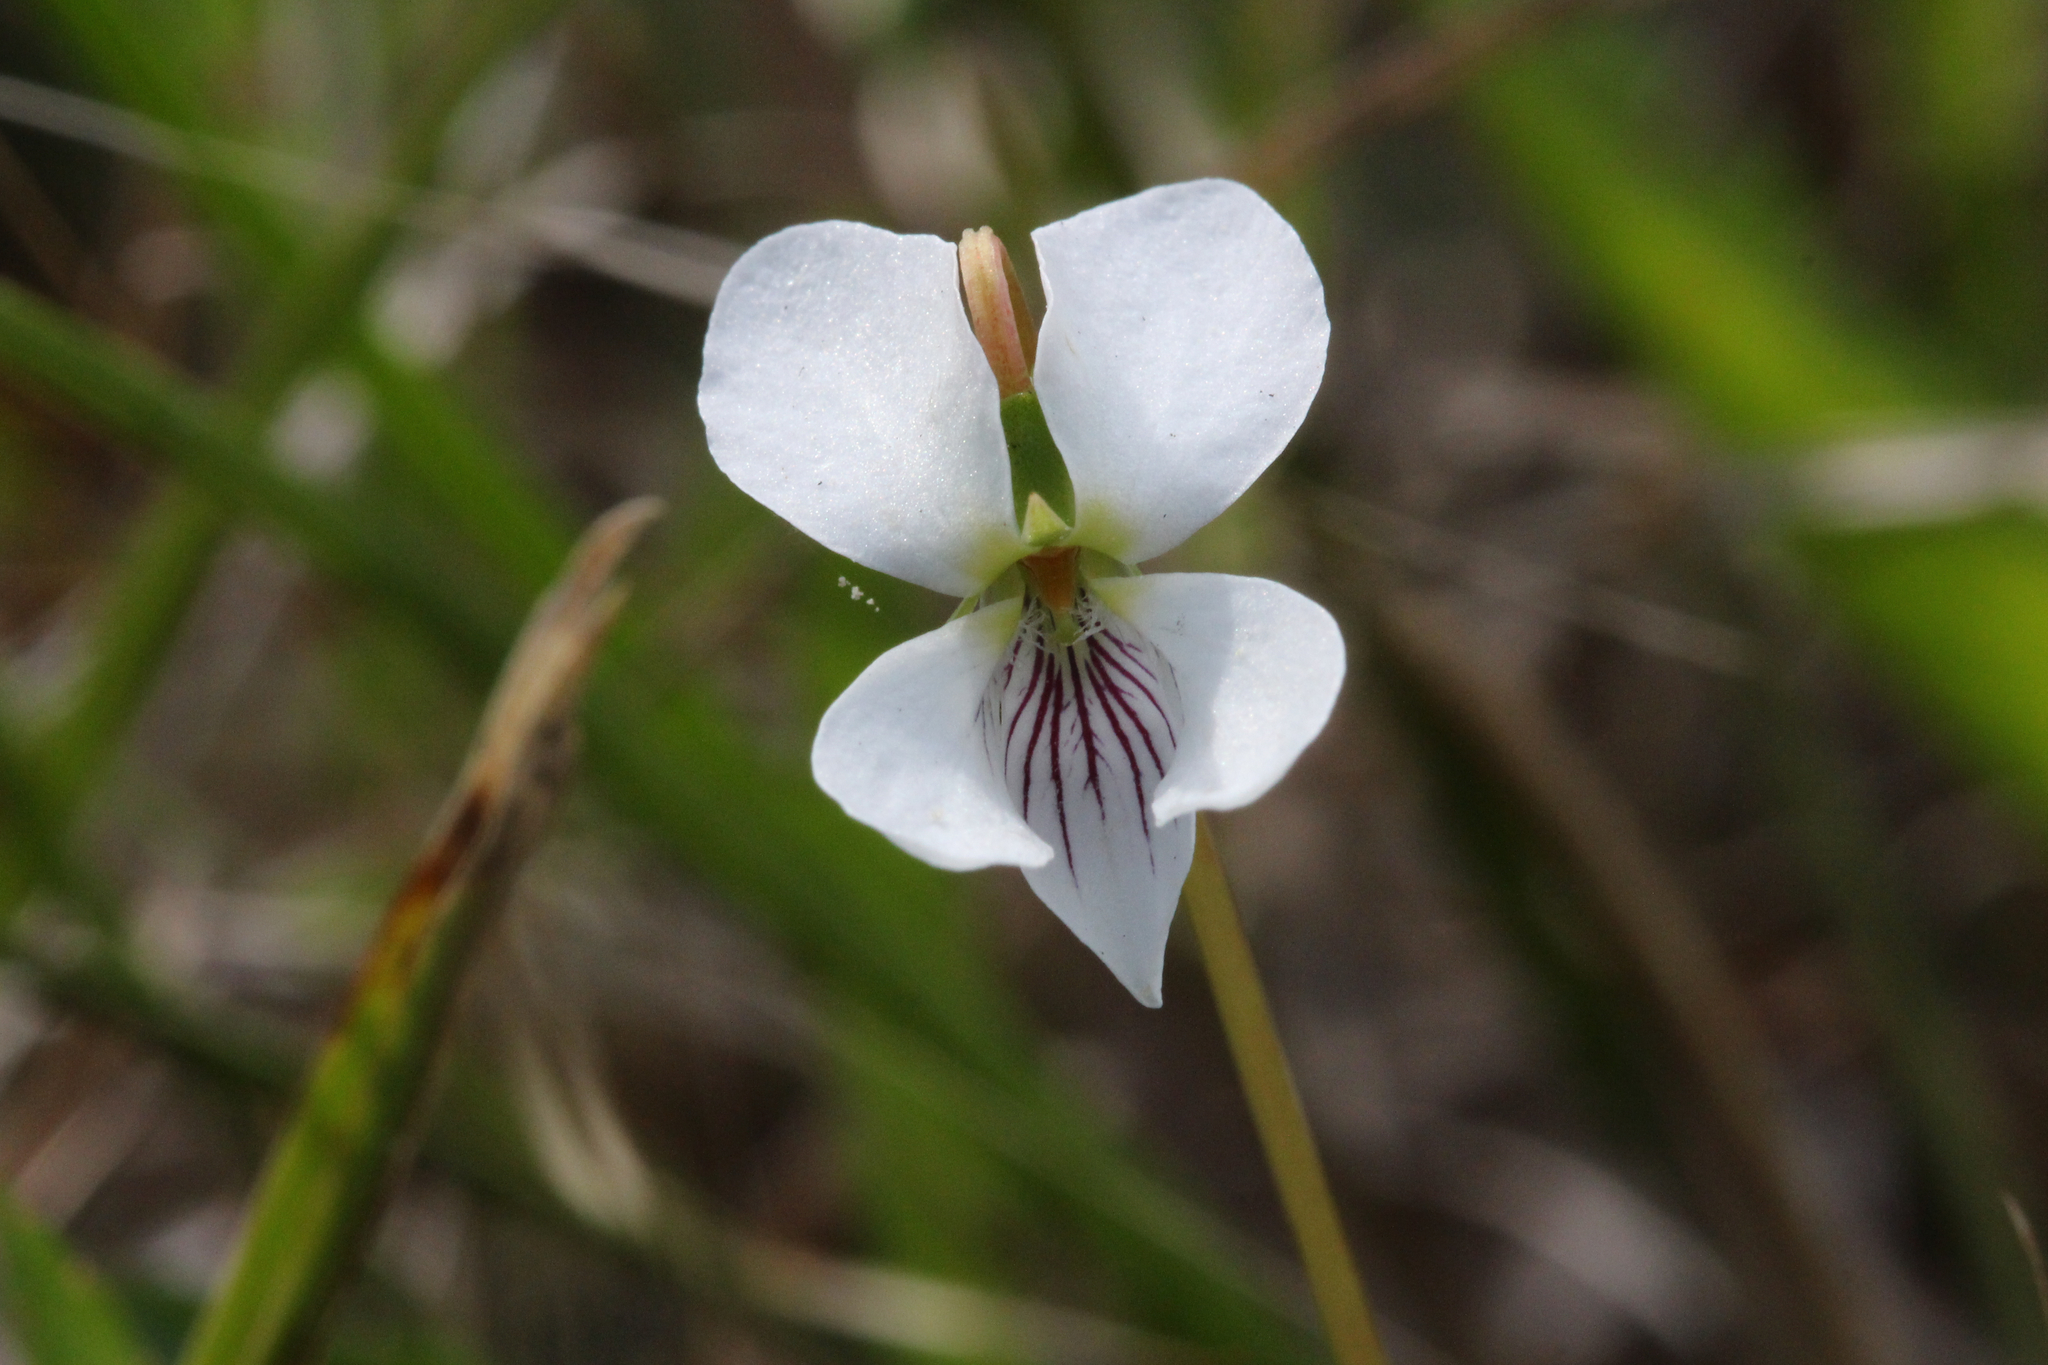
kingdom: Plantae
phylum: Tracheophyta
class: Magnoliopsida
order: Malpighiales
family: Violaceae
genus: Viola
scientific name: Viola primulifolia
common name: Primrose-leaf violet
